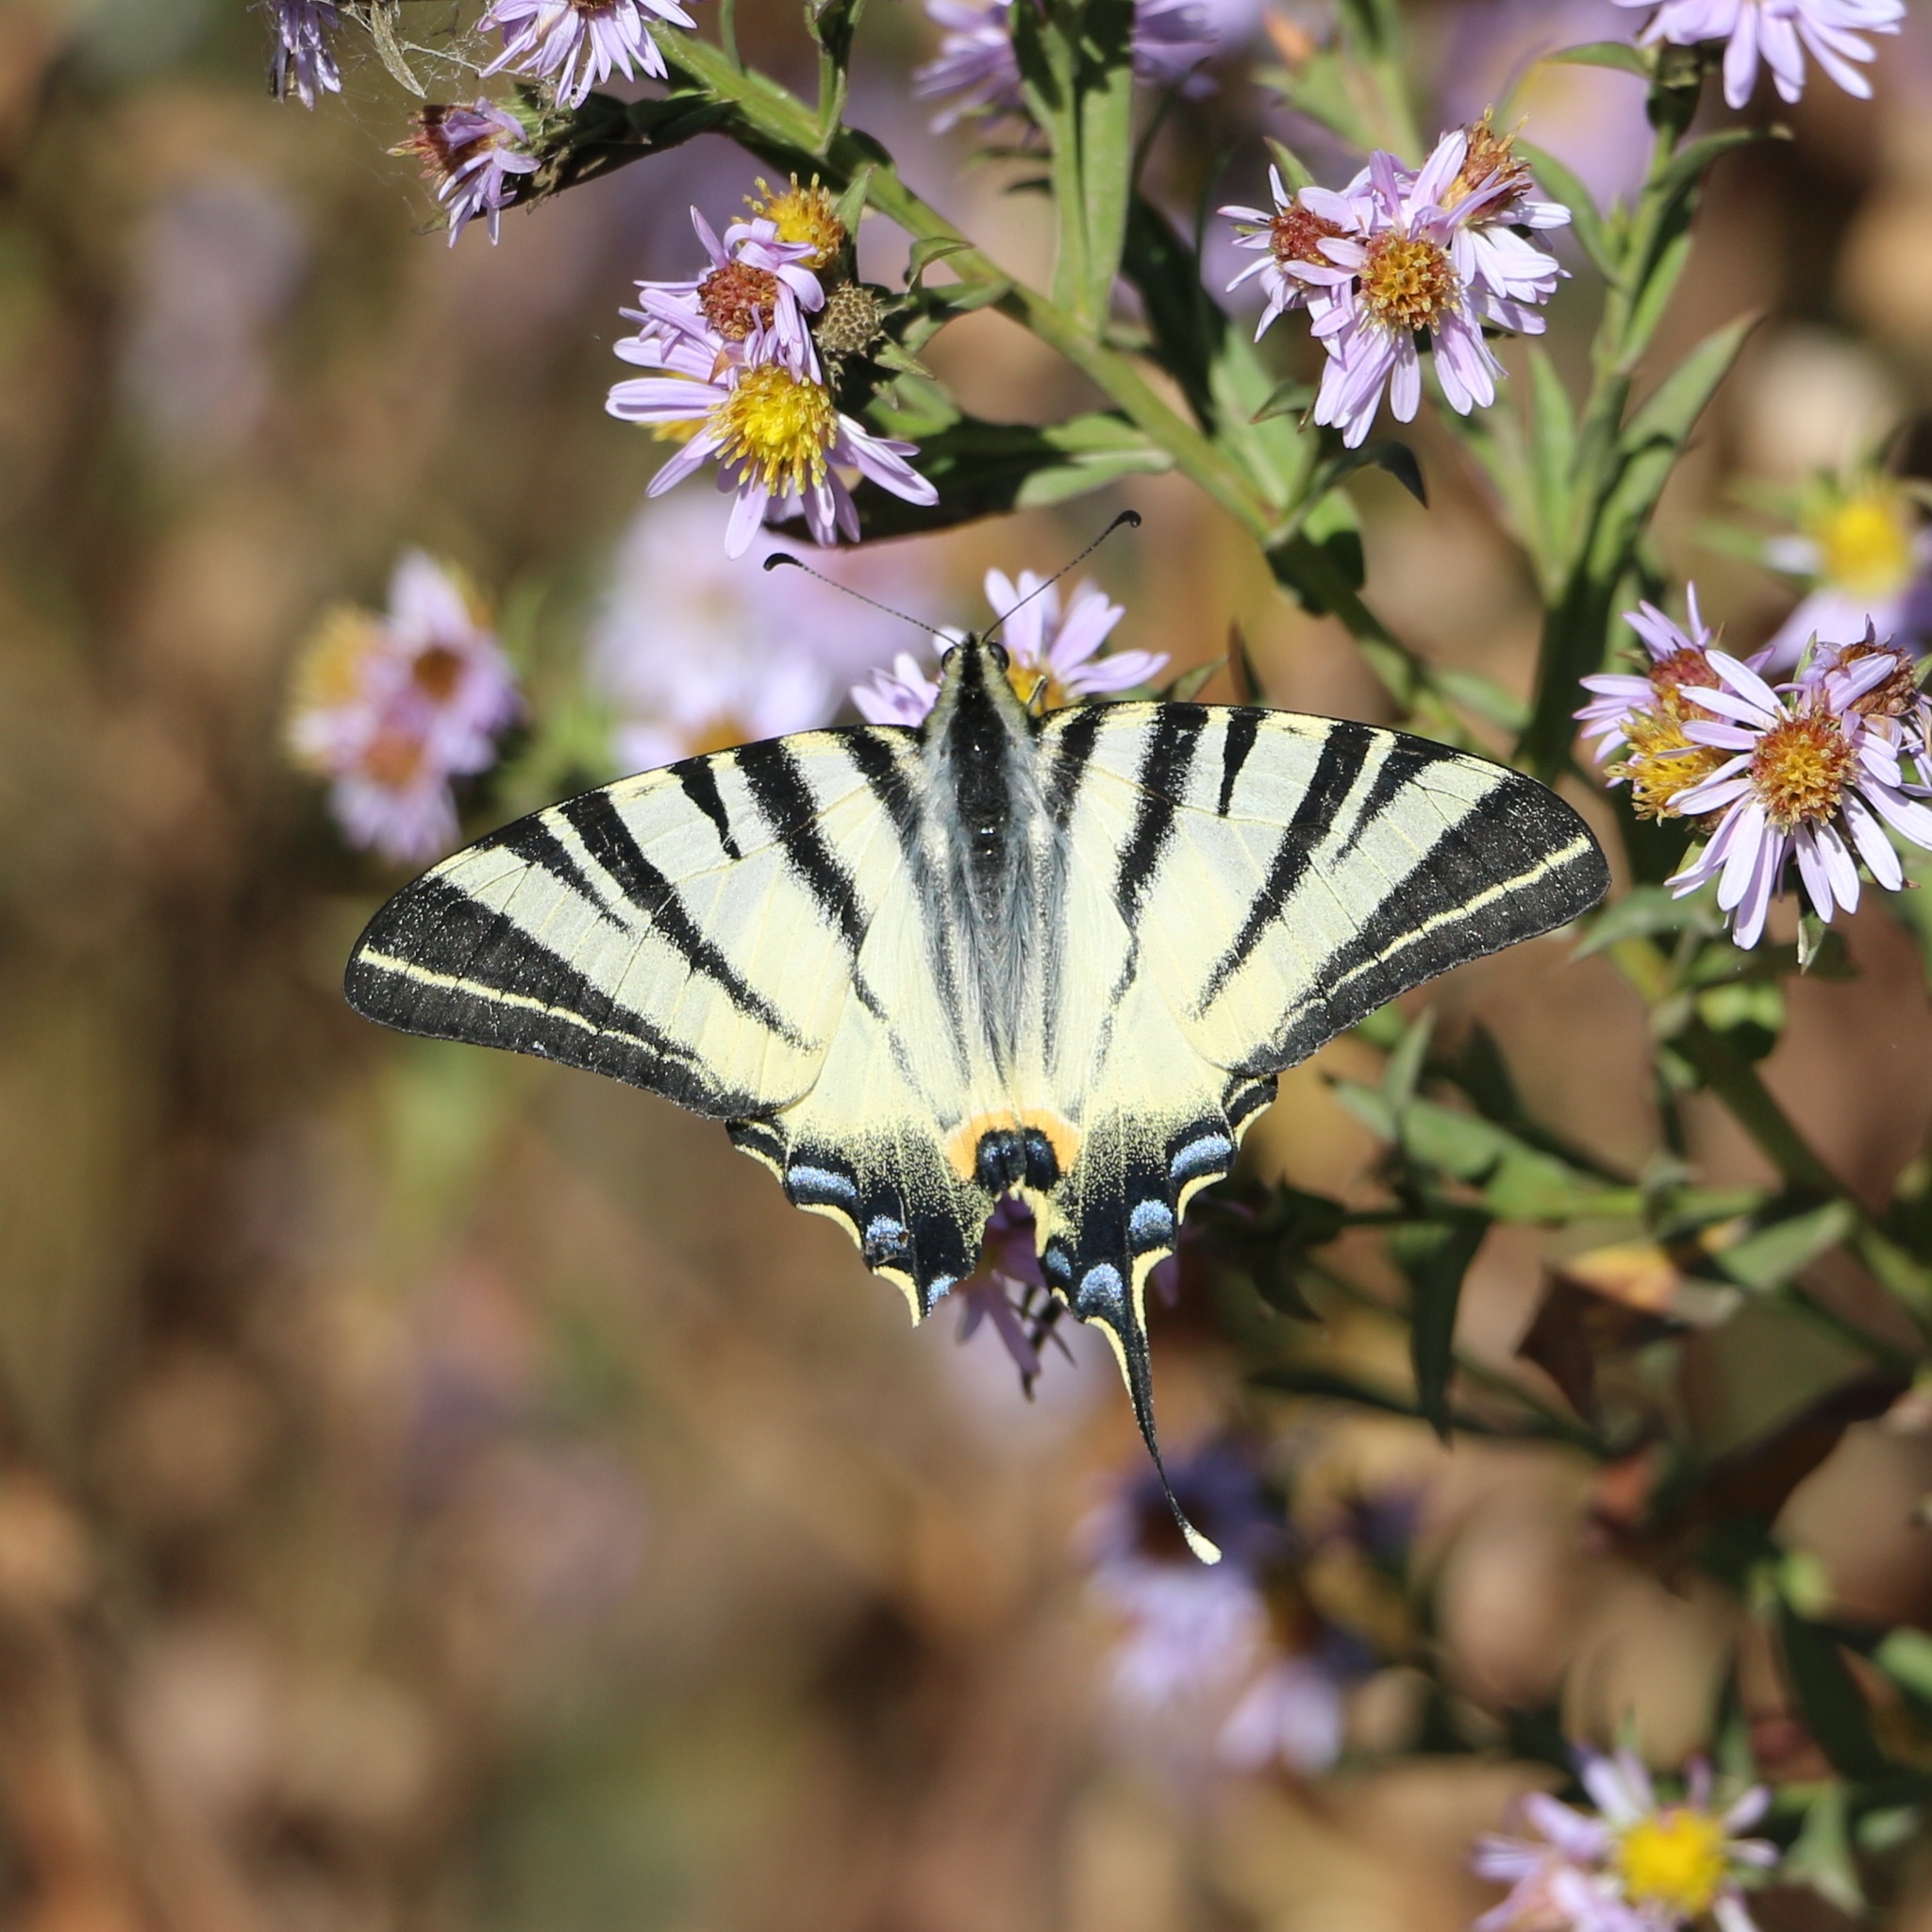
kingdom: Animalia
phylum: Arthropoda
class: Insecta
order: Lepidoptera
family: Papilionidae
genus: Iphiclides
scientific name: Iphiclides podalirius
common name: Scarce swallowtail
